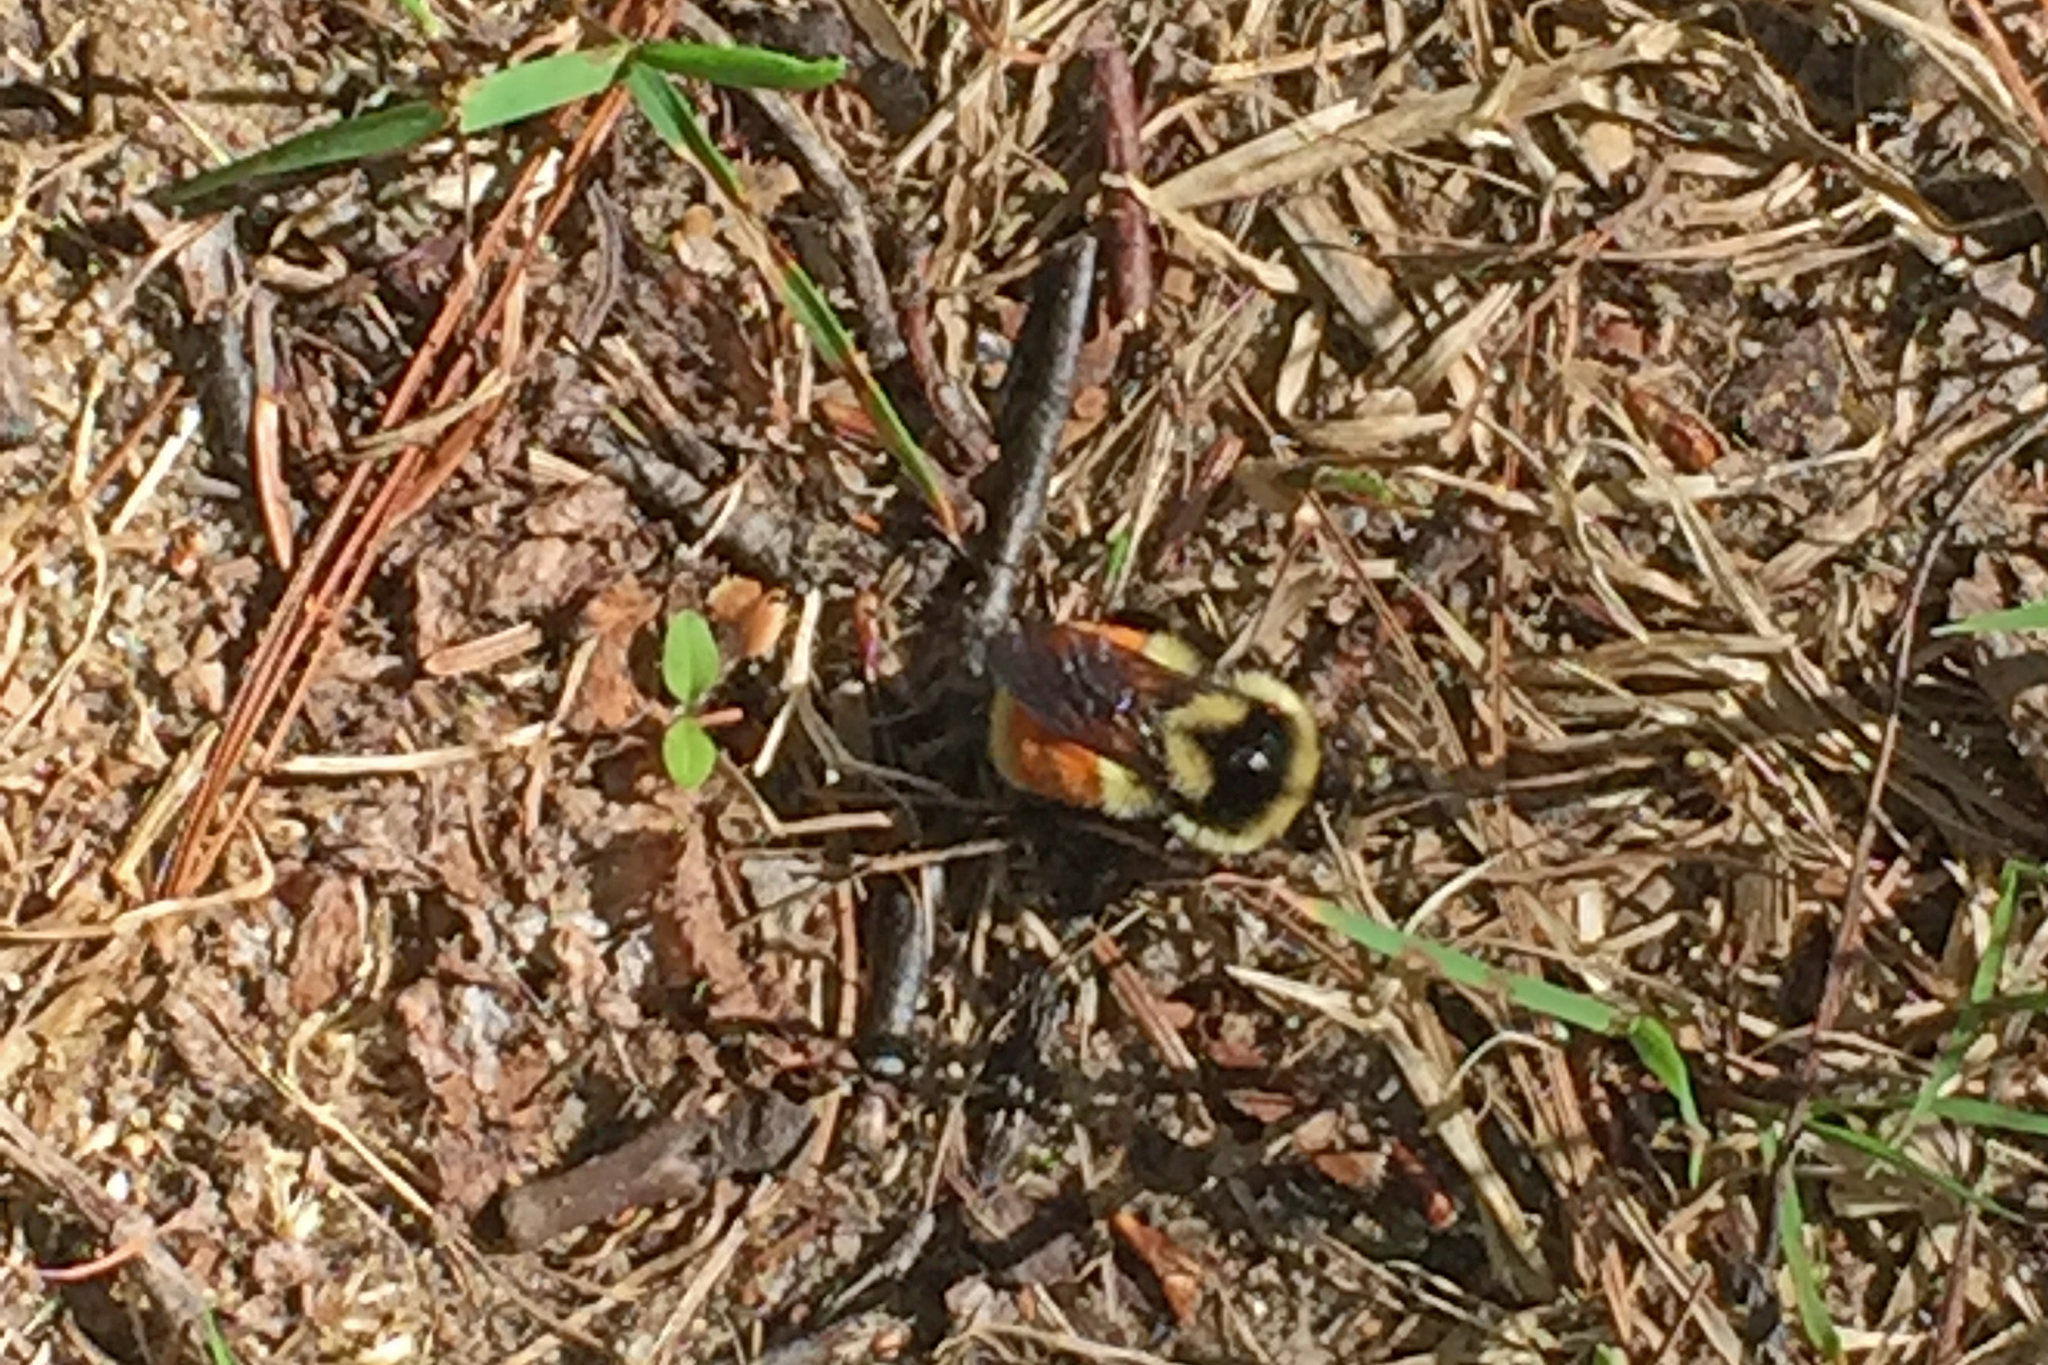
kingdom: Animalia
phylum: Arthropoda
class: Insecta
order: Hymenoptera
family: Apidae
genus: Bombus
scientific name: Bombus ternarius
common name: Tri-colored bumble bee
